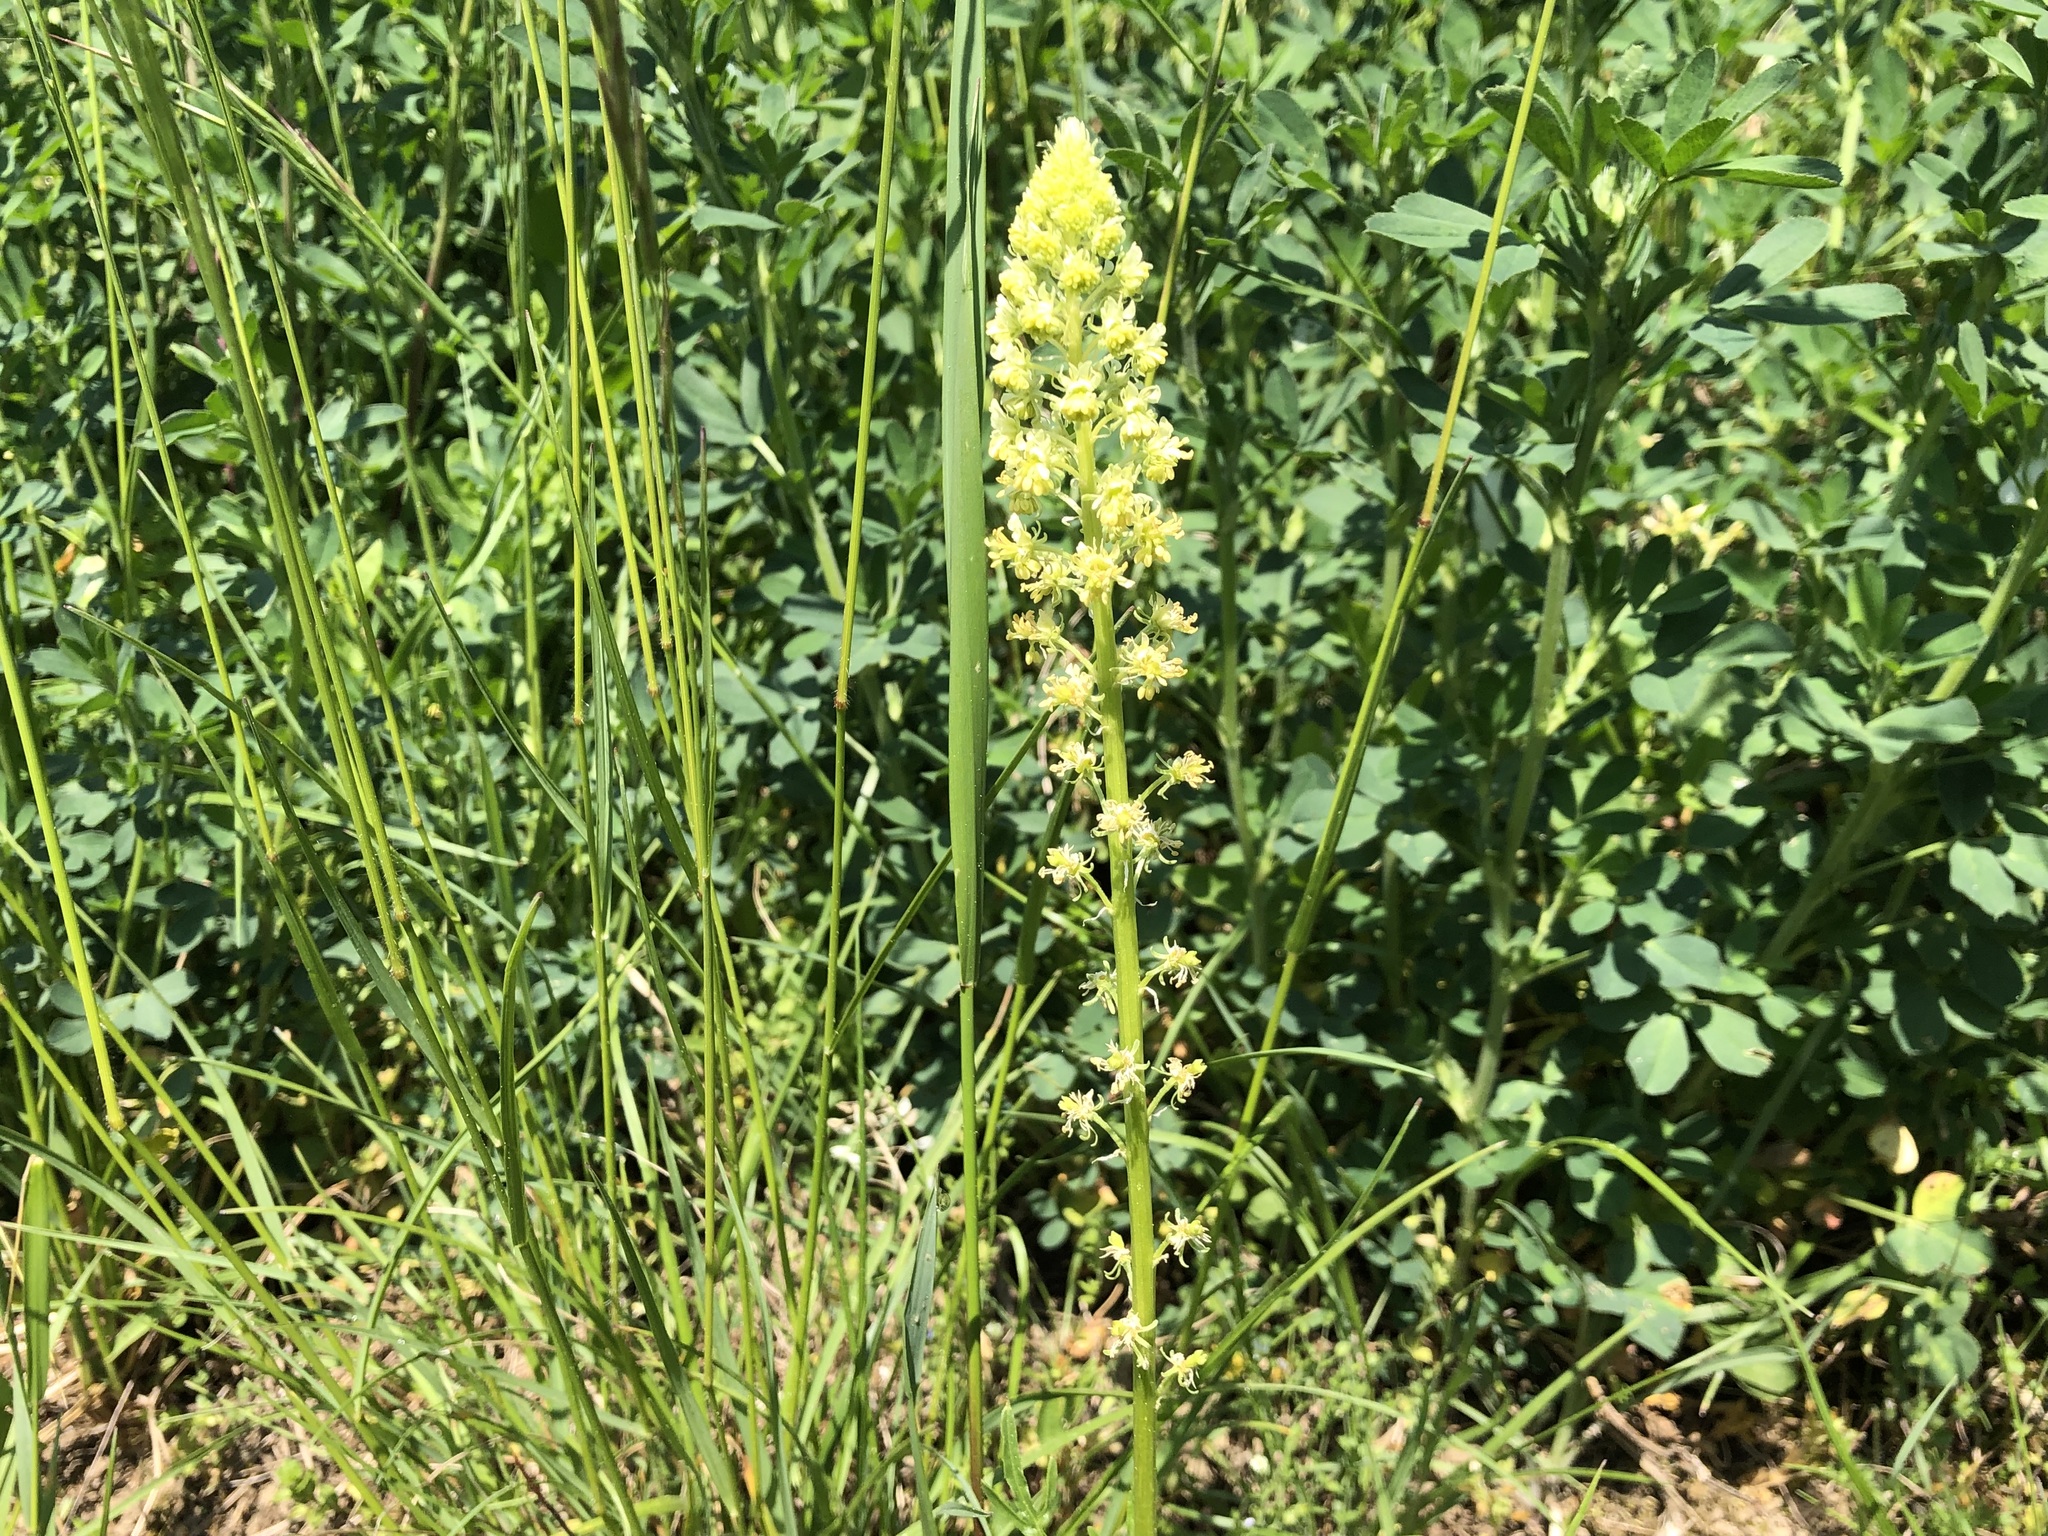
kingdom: Plantae
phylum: Tracheophyta
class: Magnoliopsida
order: Brassicales
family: Resedaceae
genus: Reseda
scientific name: Reseda lutea
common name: Wild mignonette
